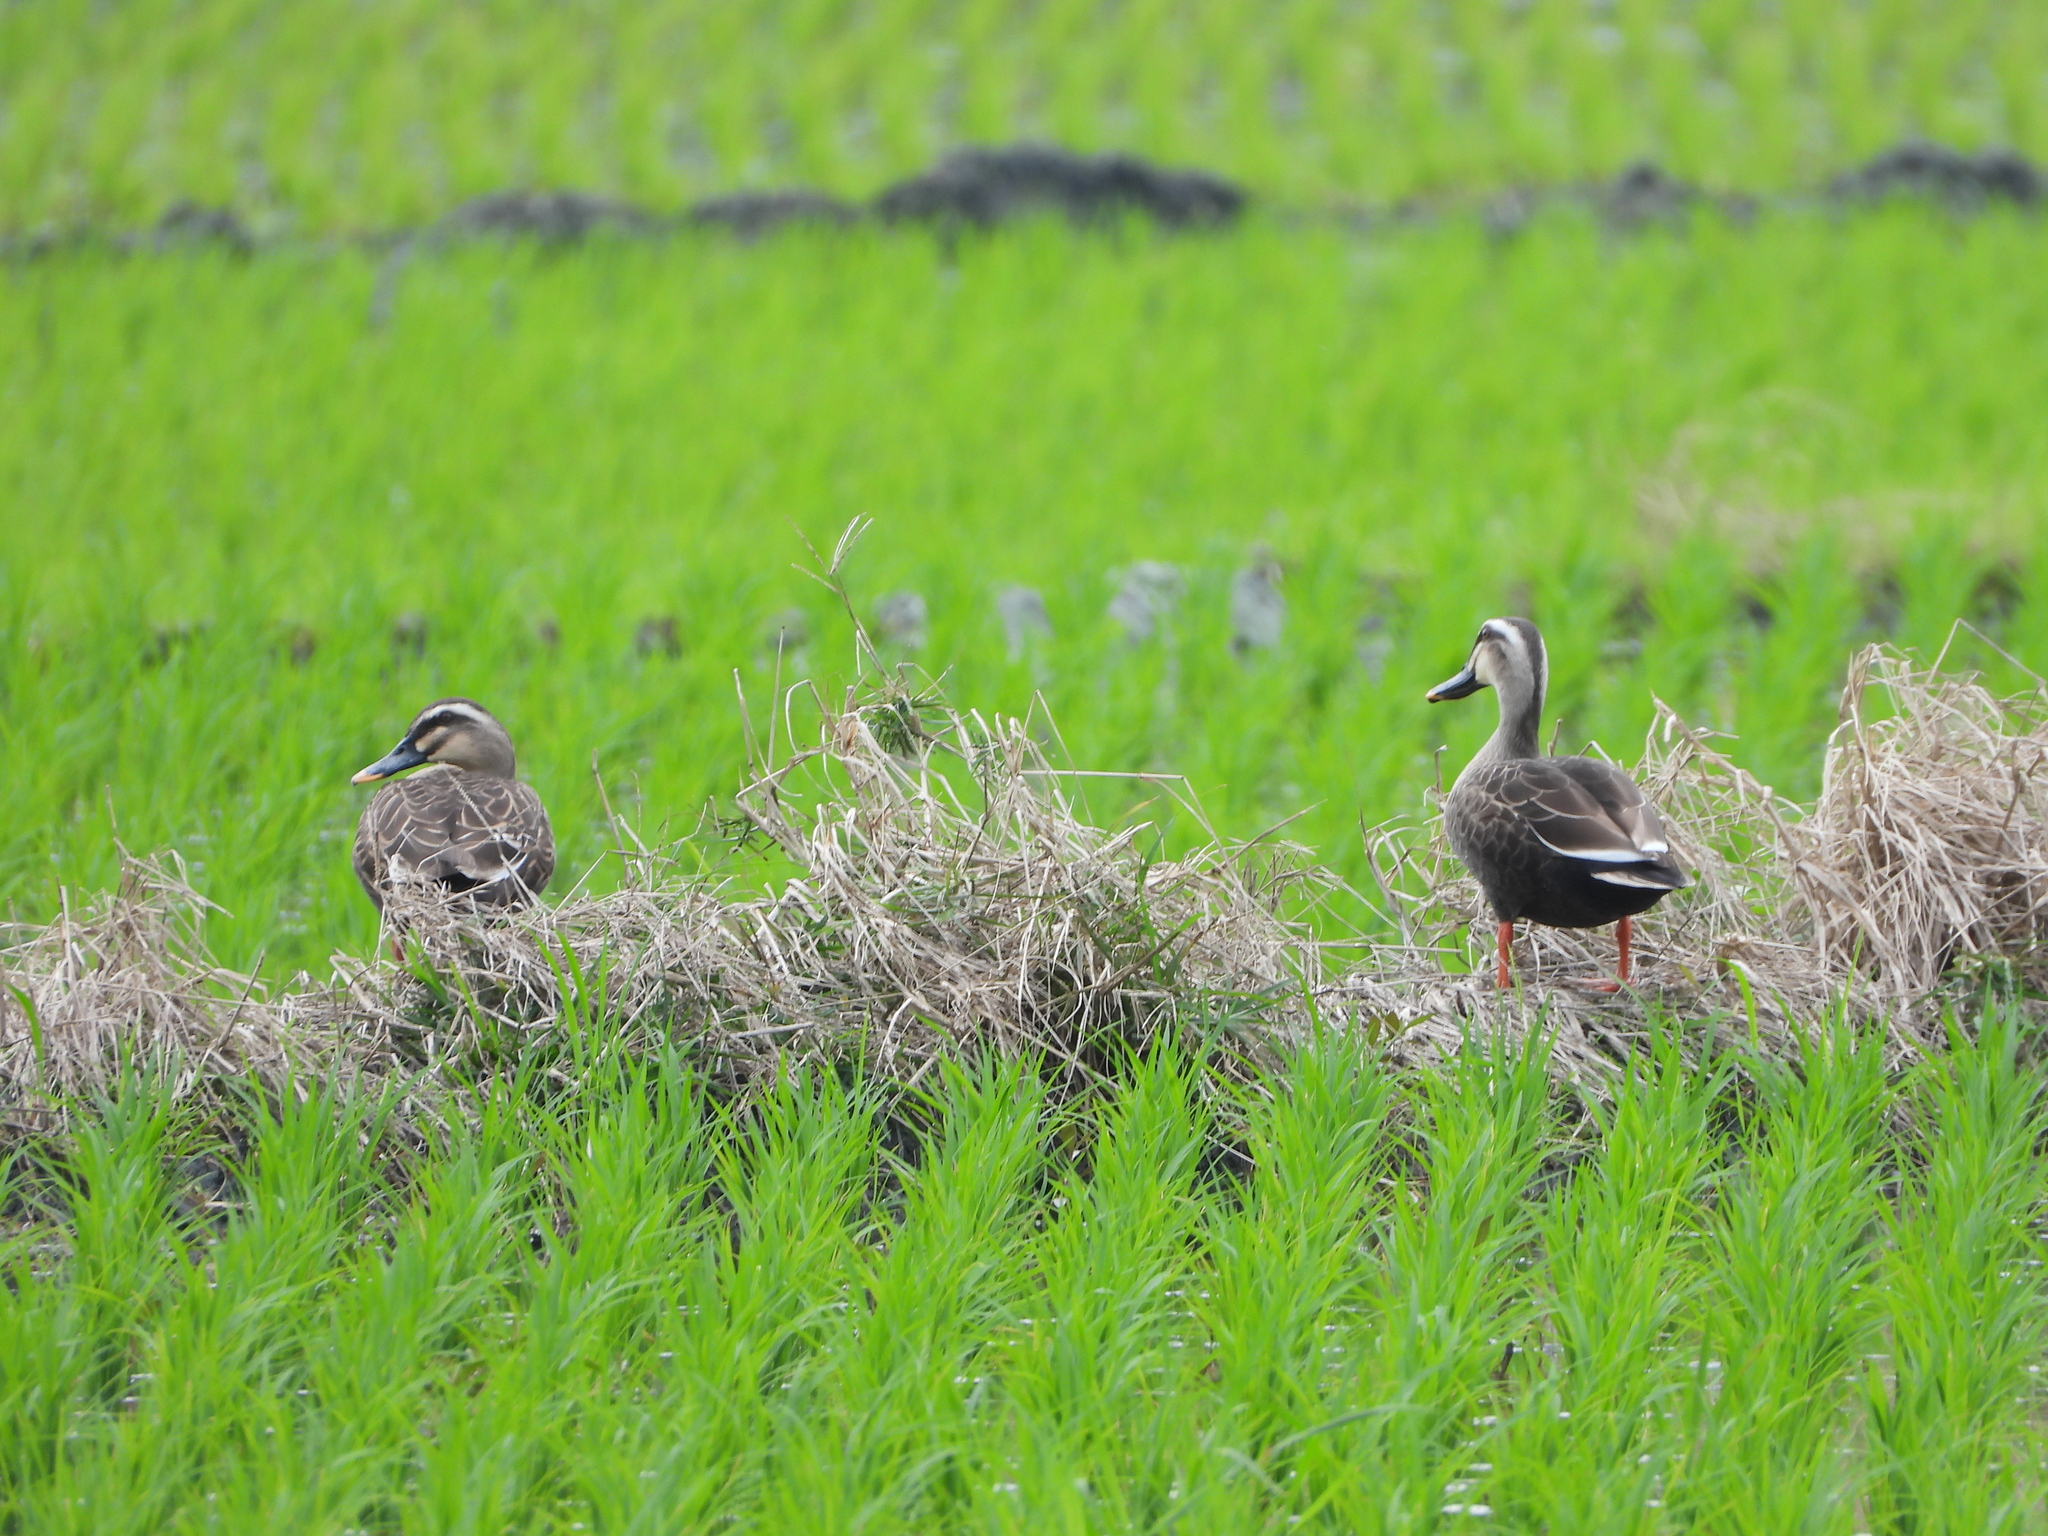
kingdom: Animalia
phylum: Chordata
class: Aves
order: Anseriformes
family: Anatidae
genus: Anas
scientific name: Anas zonorhyncha
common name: Eastern spot-billed duck
